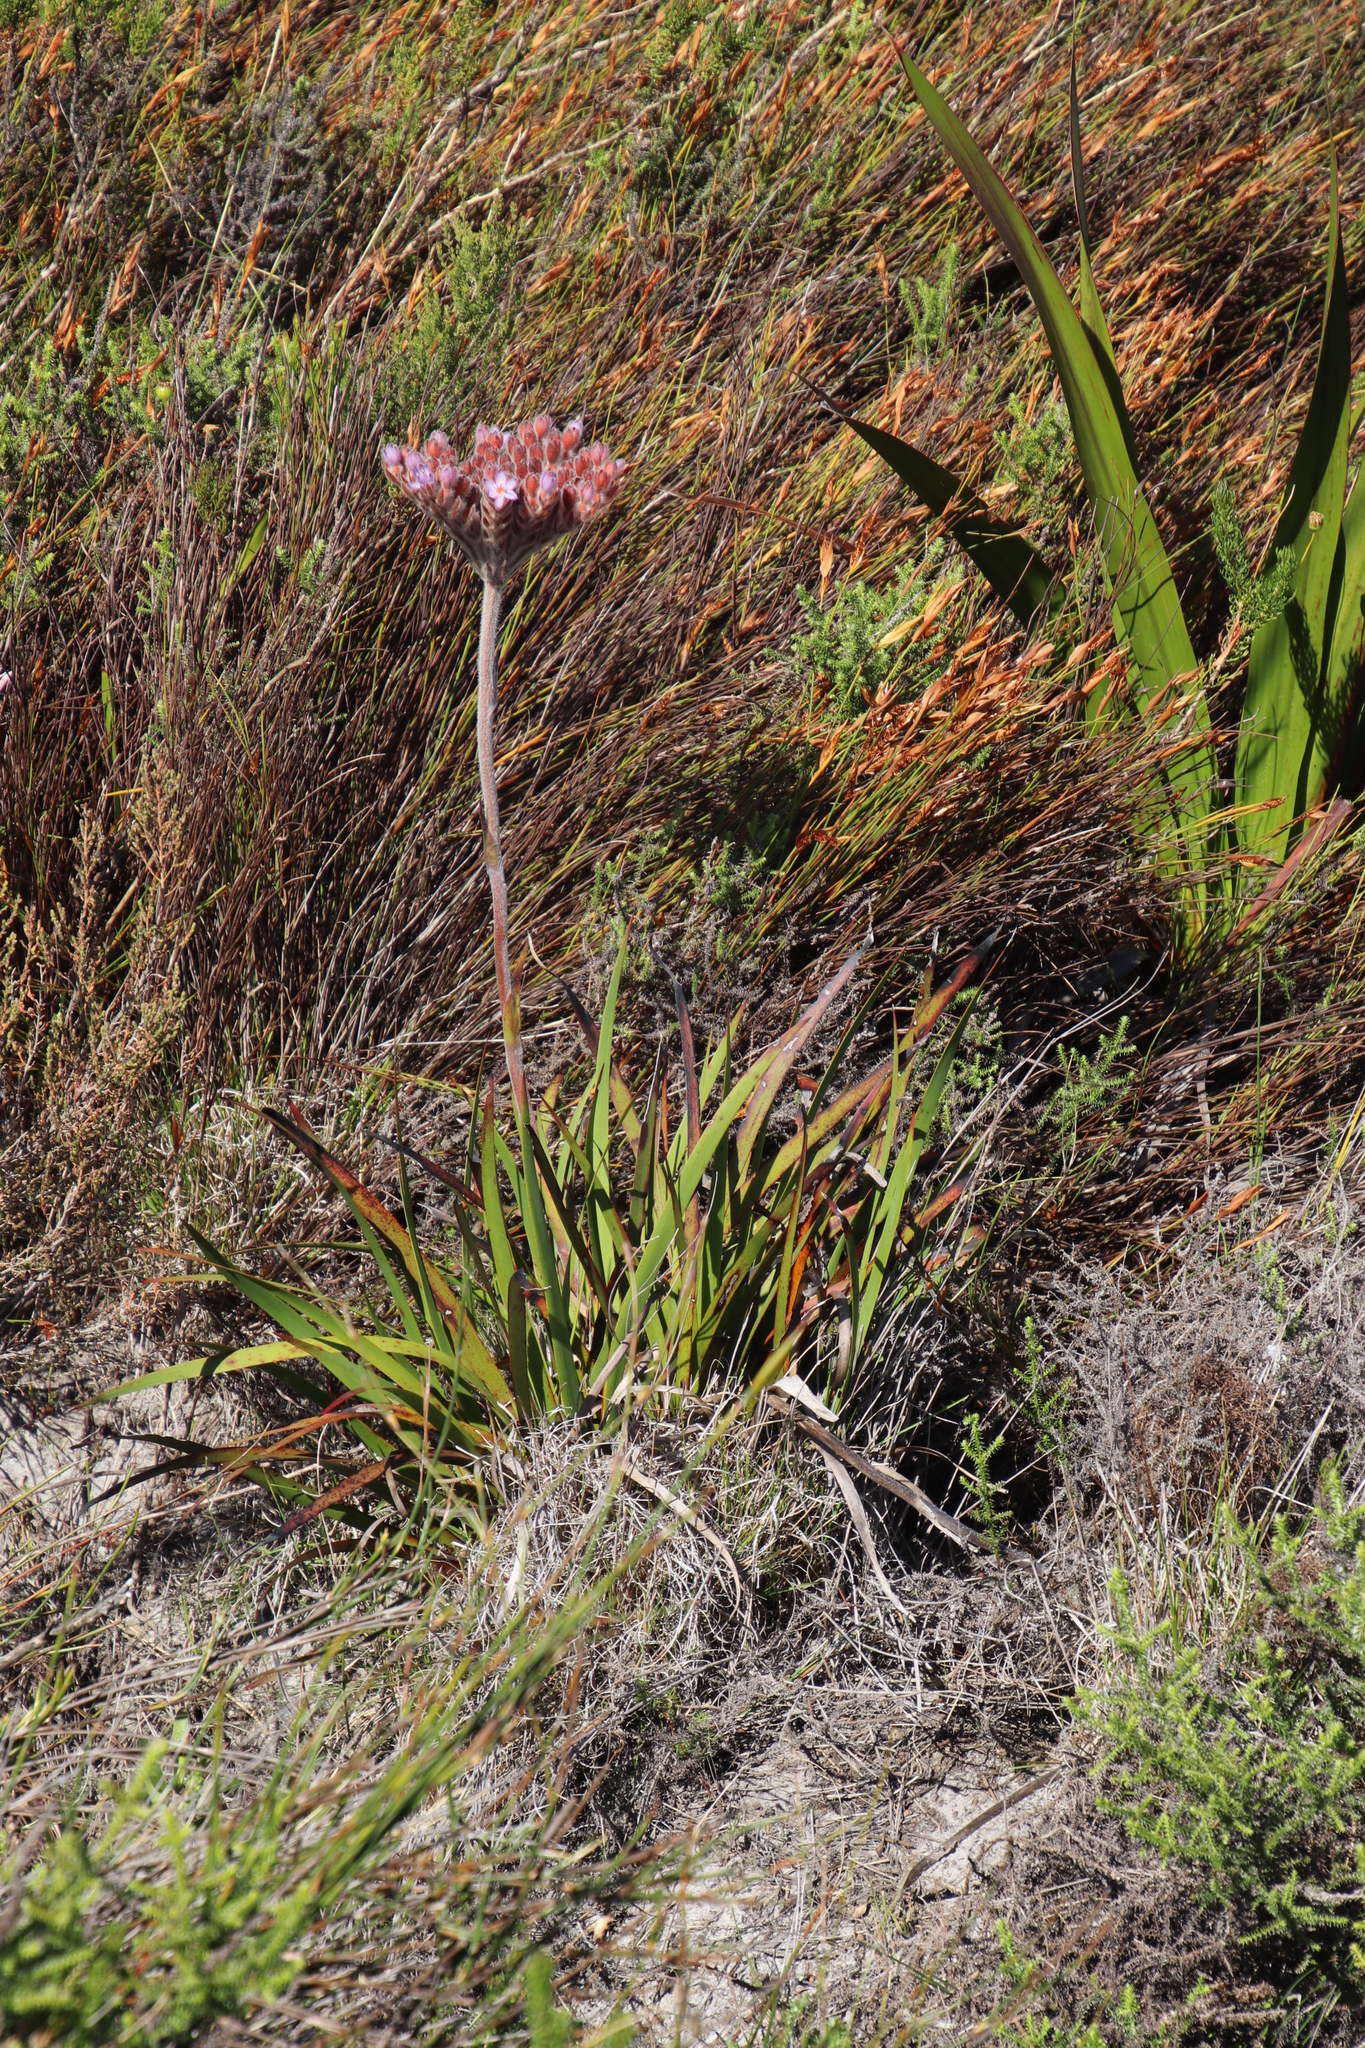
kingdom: Plantae
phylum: Tracheophyta
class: Liliopsida
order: Commelinales
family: Haemodoraceae
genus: Dilatris
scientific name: Dilatris pillansii
